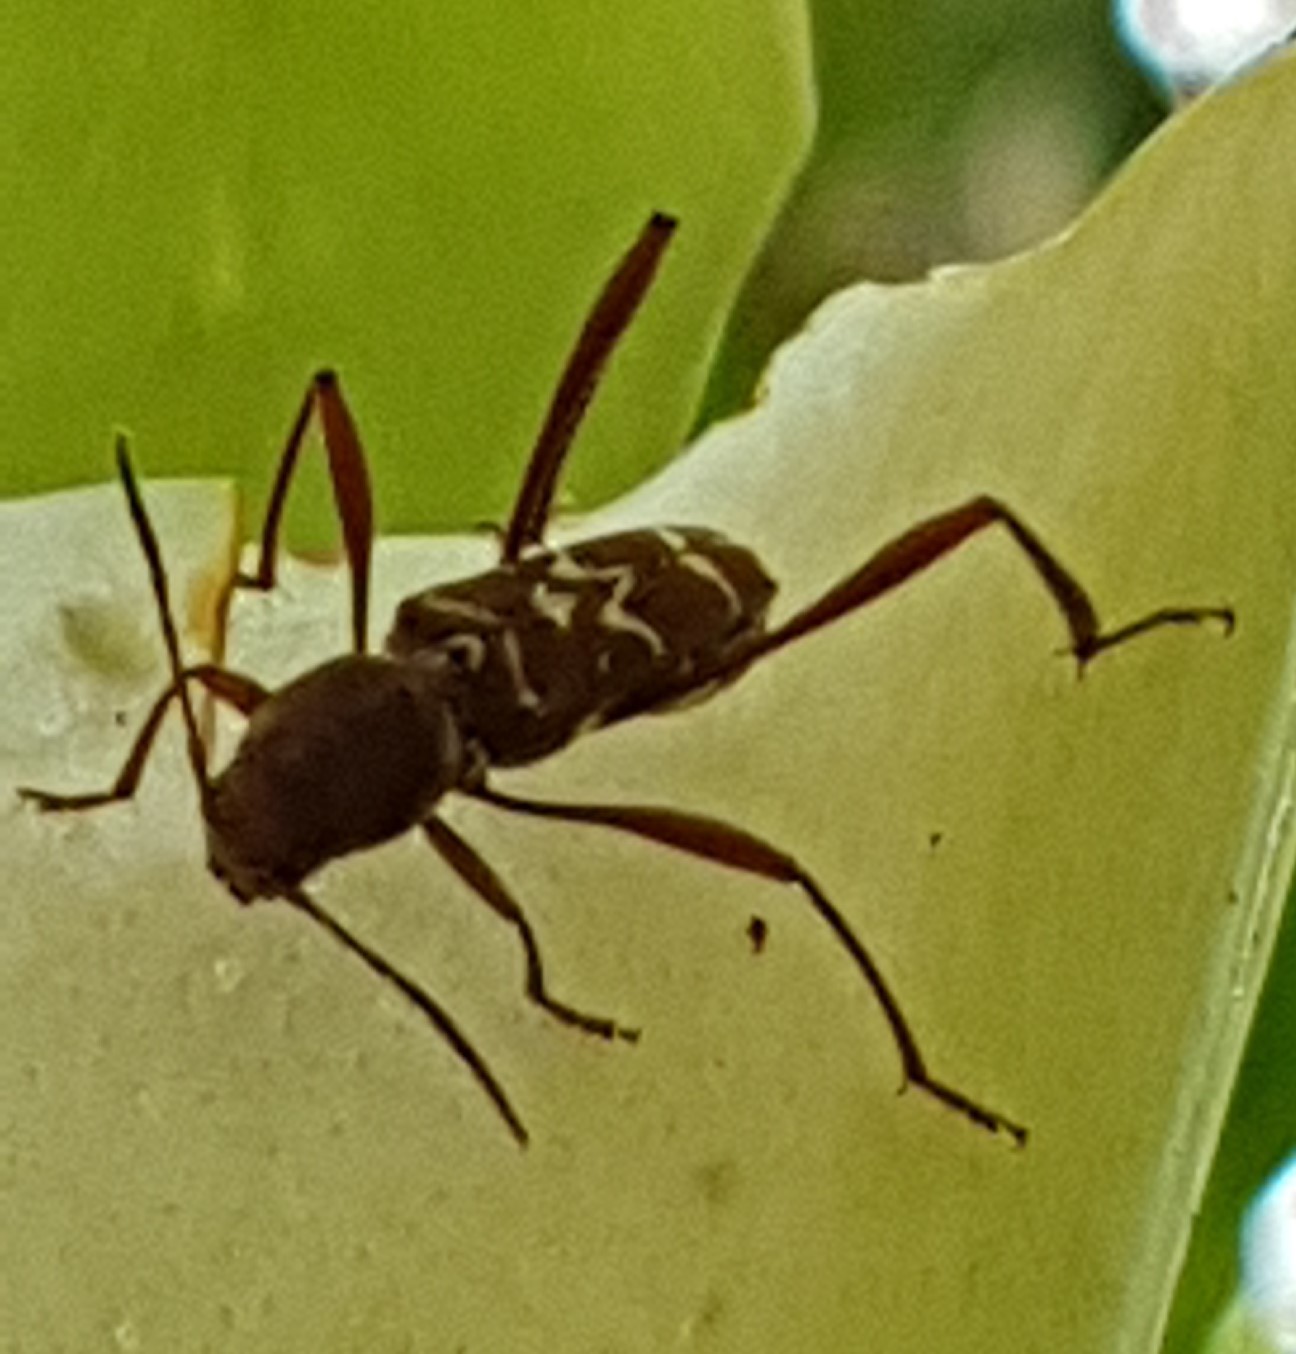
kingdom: Animalia
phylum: Arthropoda
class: Insecta
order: Coleoptera
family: Cerambycidae
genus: Neoclytus
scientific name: Neoclytus cacicus
